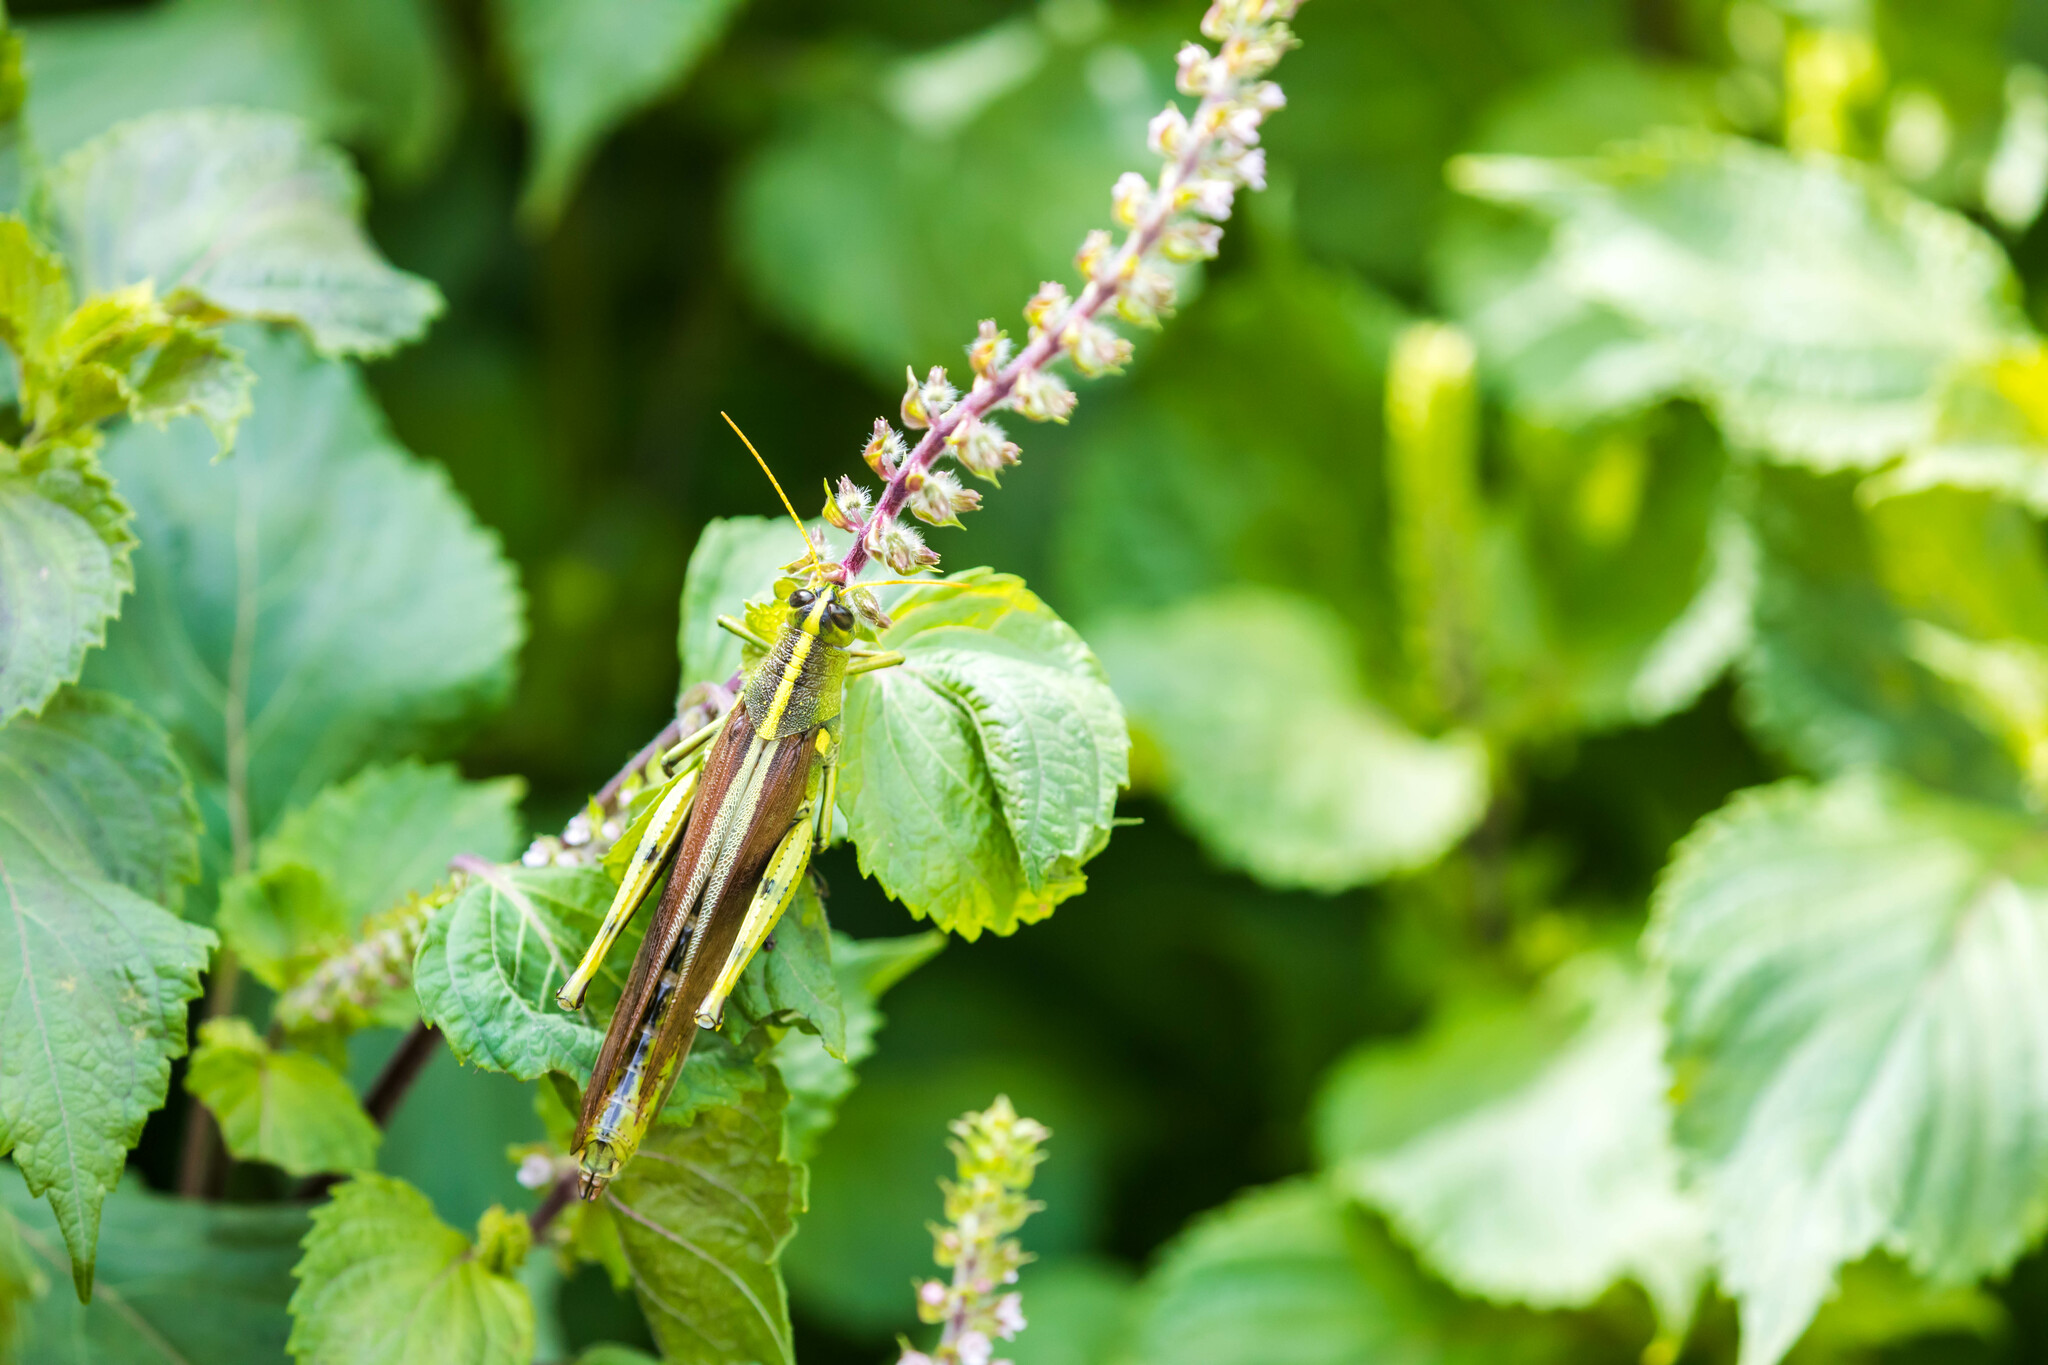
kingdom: Animalia
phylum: Arthropoda
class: Insecta
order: Orthoptera
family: Acrididae
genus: Schistocerca
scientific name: Schistocerca obscura
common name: Obscure bird grasshopper
